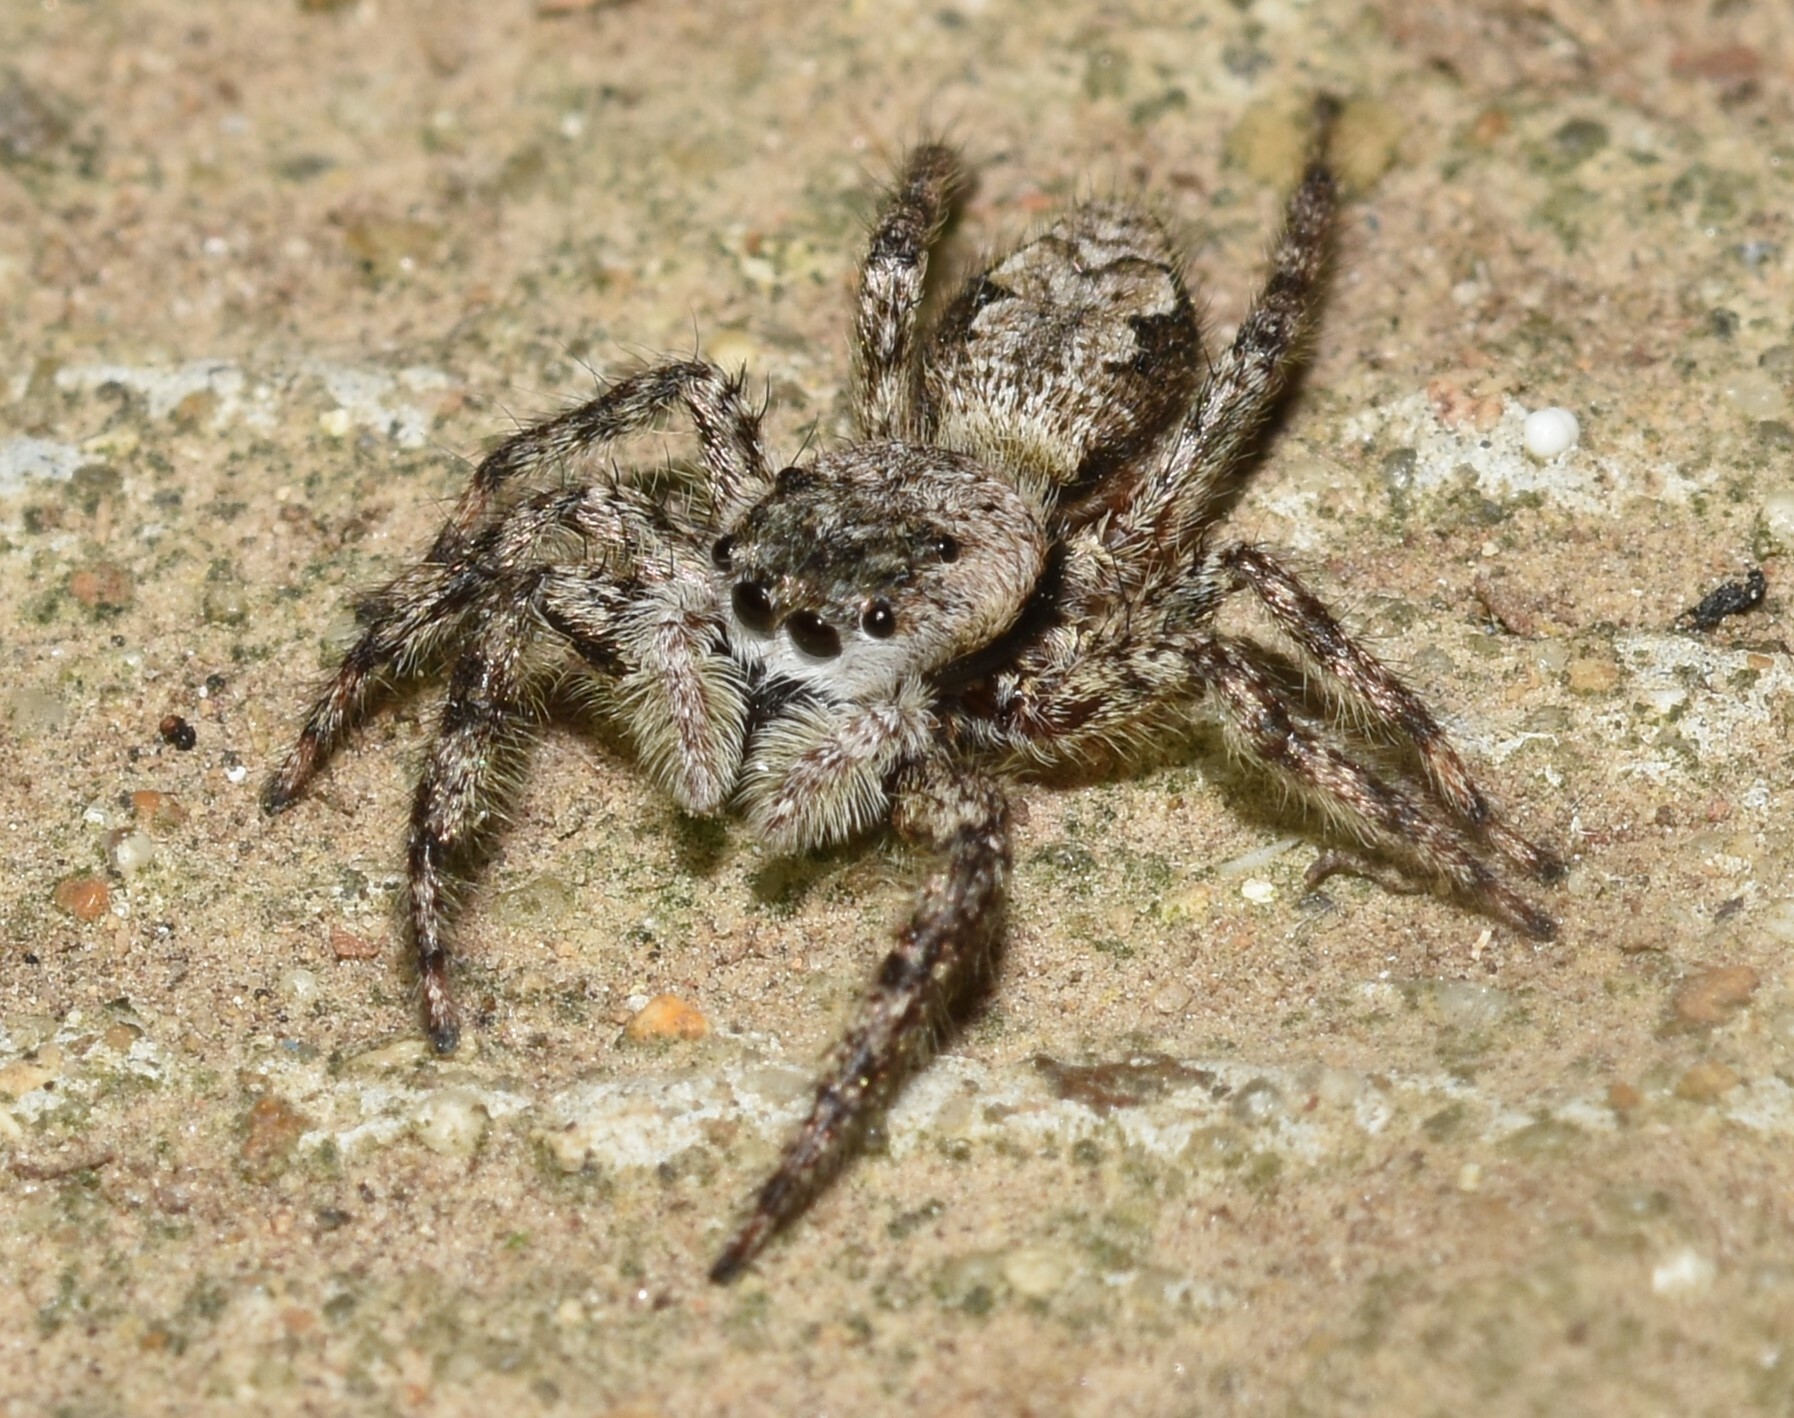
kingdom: Animalia
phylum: Arthropoda
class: Arachnida
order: Araneae
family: Salticidae
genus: Platycryptus
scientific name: Platycryptus undatus
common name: Tan jumping spider
